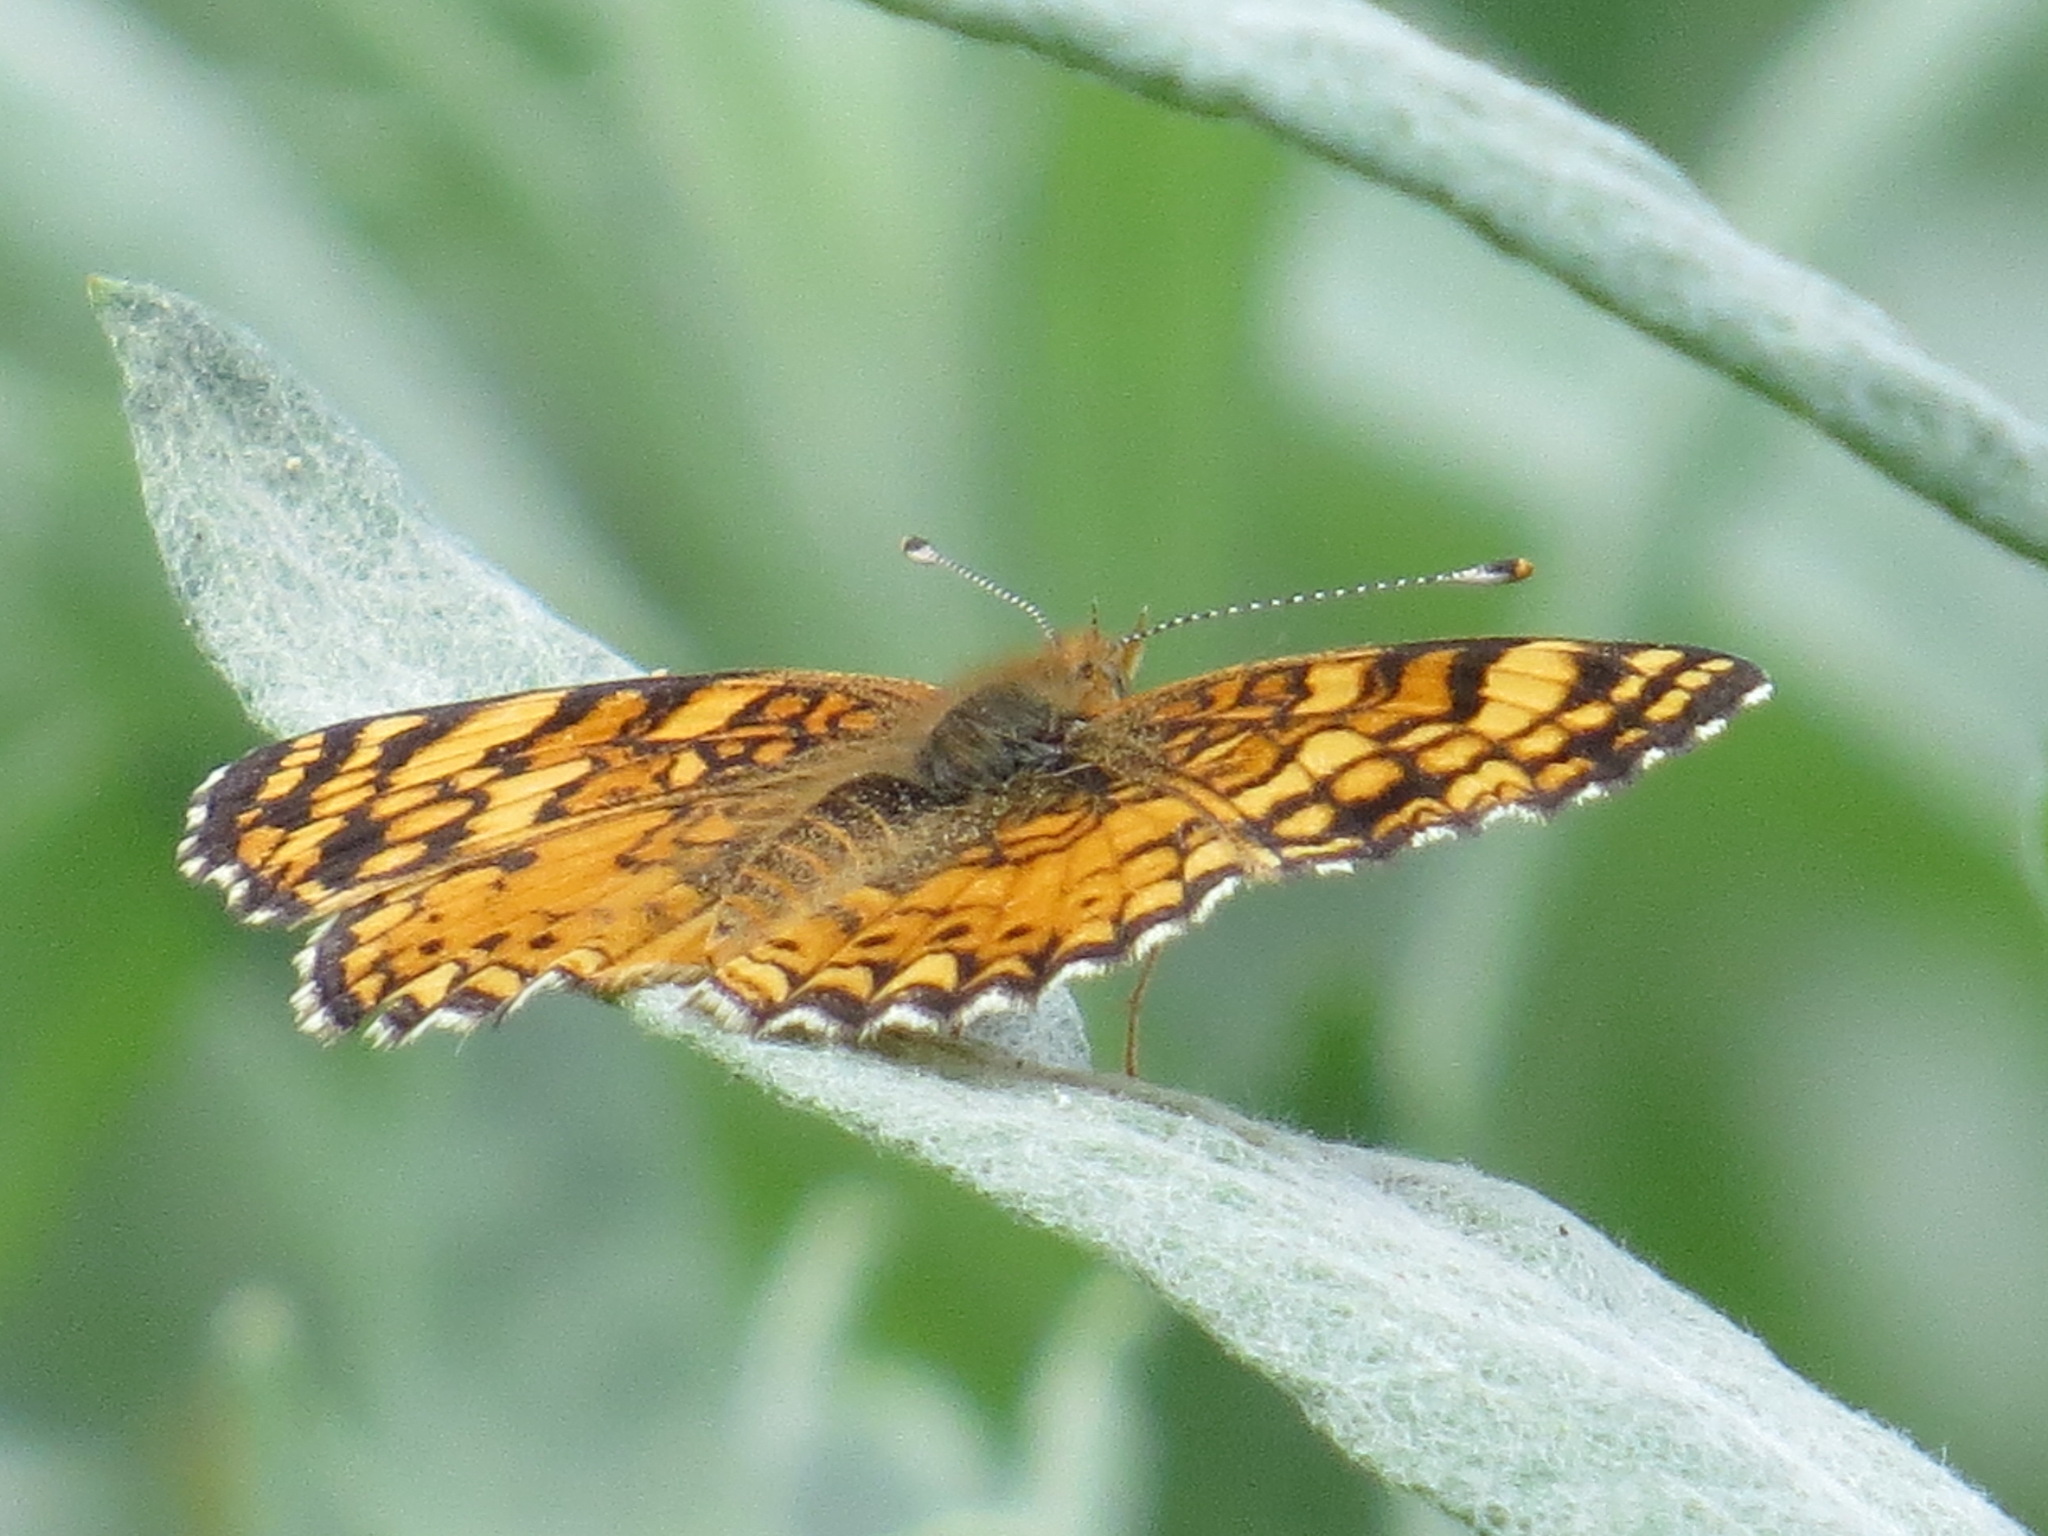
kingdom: Animalia
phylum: Arthropoda
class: Insecta
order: Lepidoptera
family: Nymphalidae
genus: Eresia
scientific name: Eresia aveyrona
